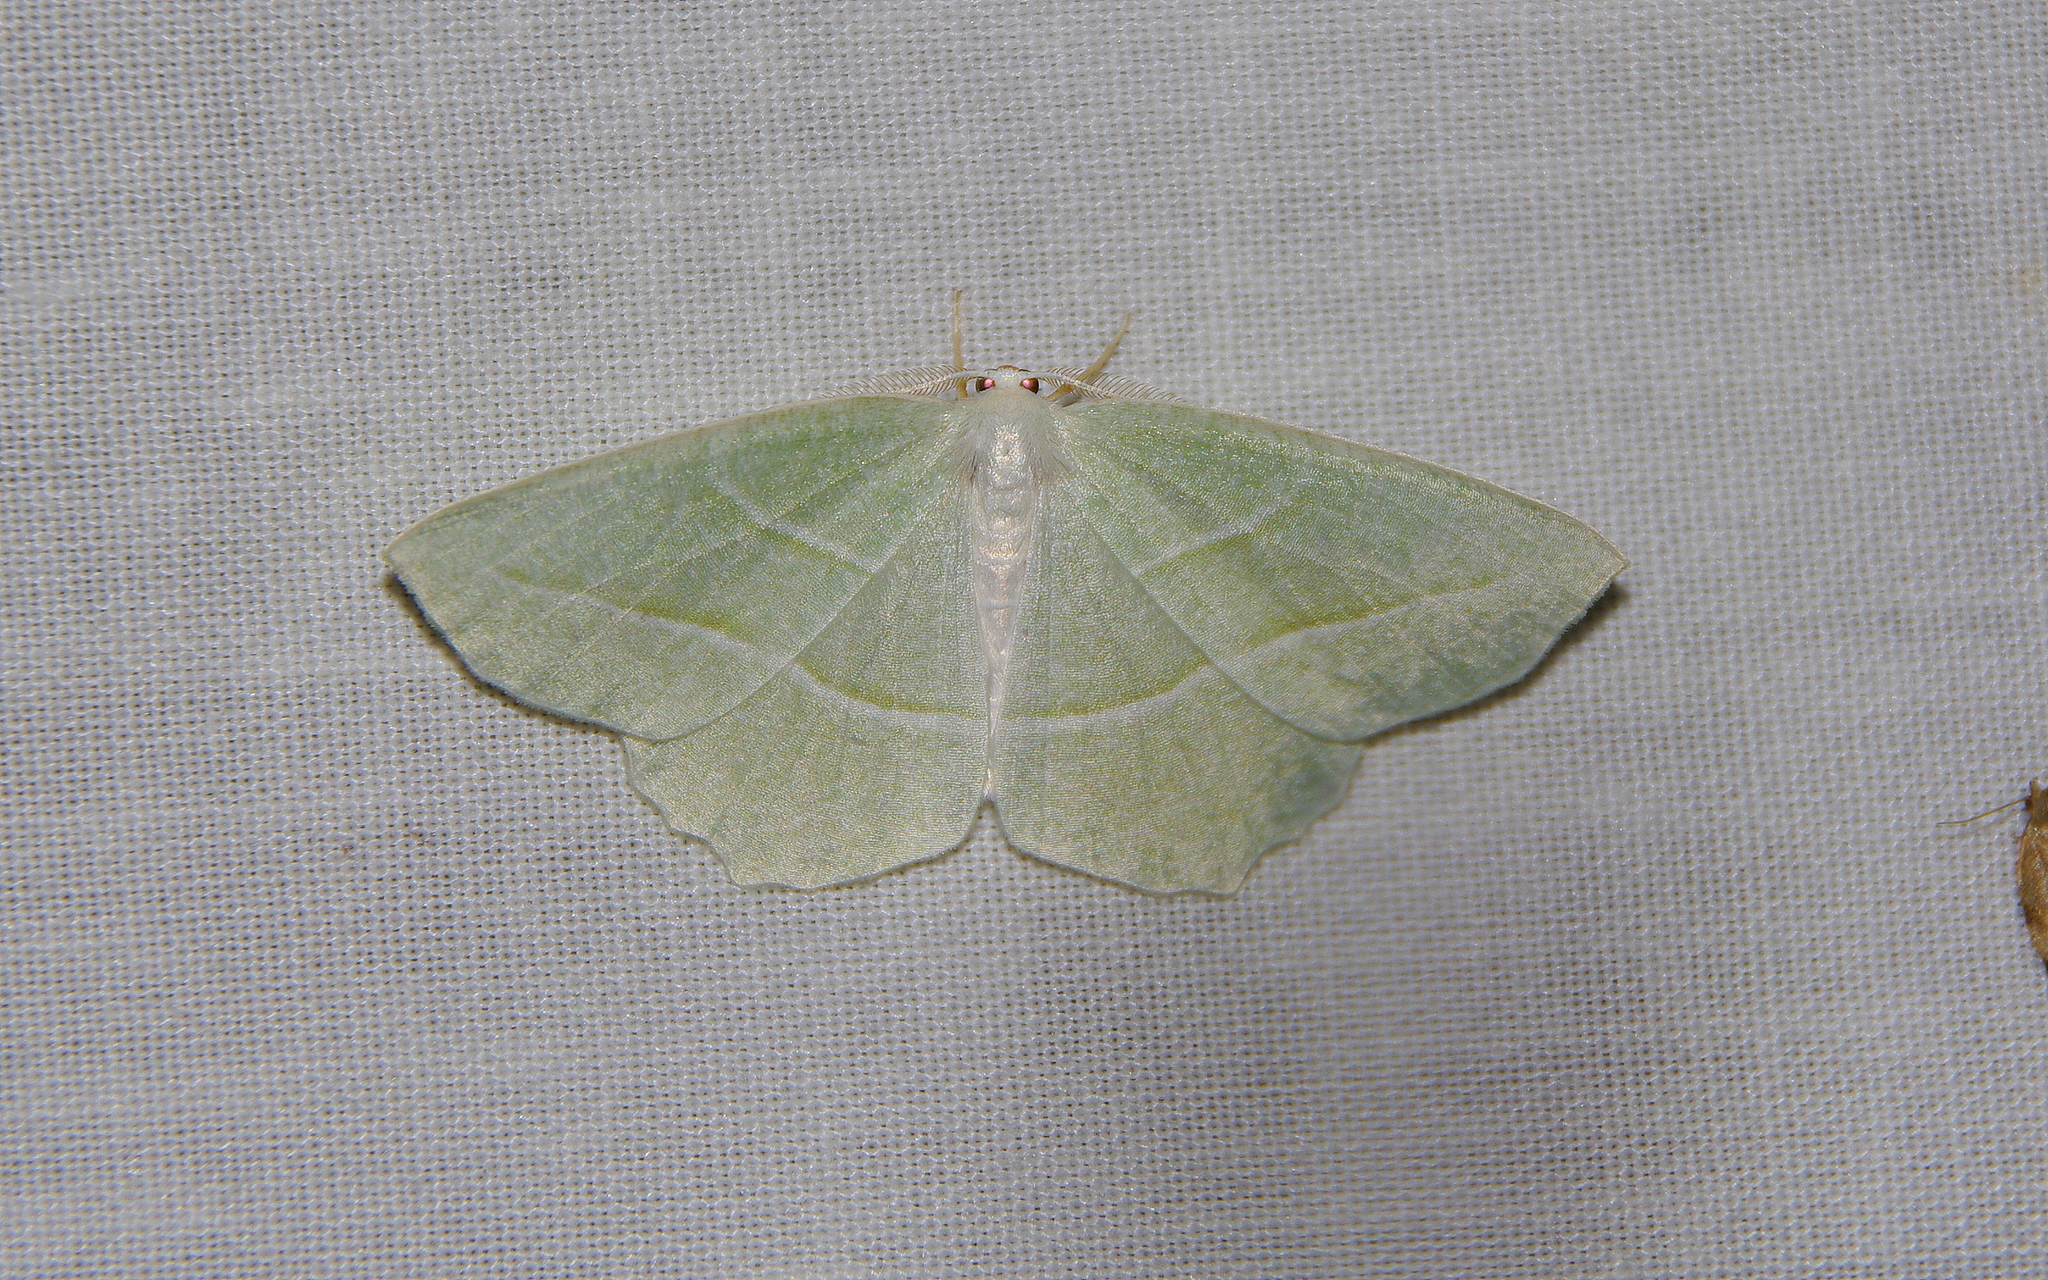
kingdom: Animalia
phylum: Arthropoda
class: Insecta
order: Lepidoptera
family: Geometridae
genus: Campaea
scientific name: Campaea perlata
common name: Fringed looper
